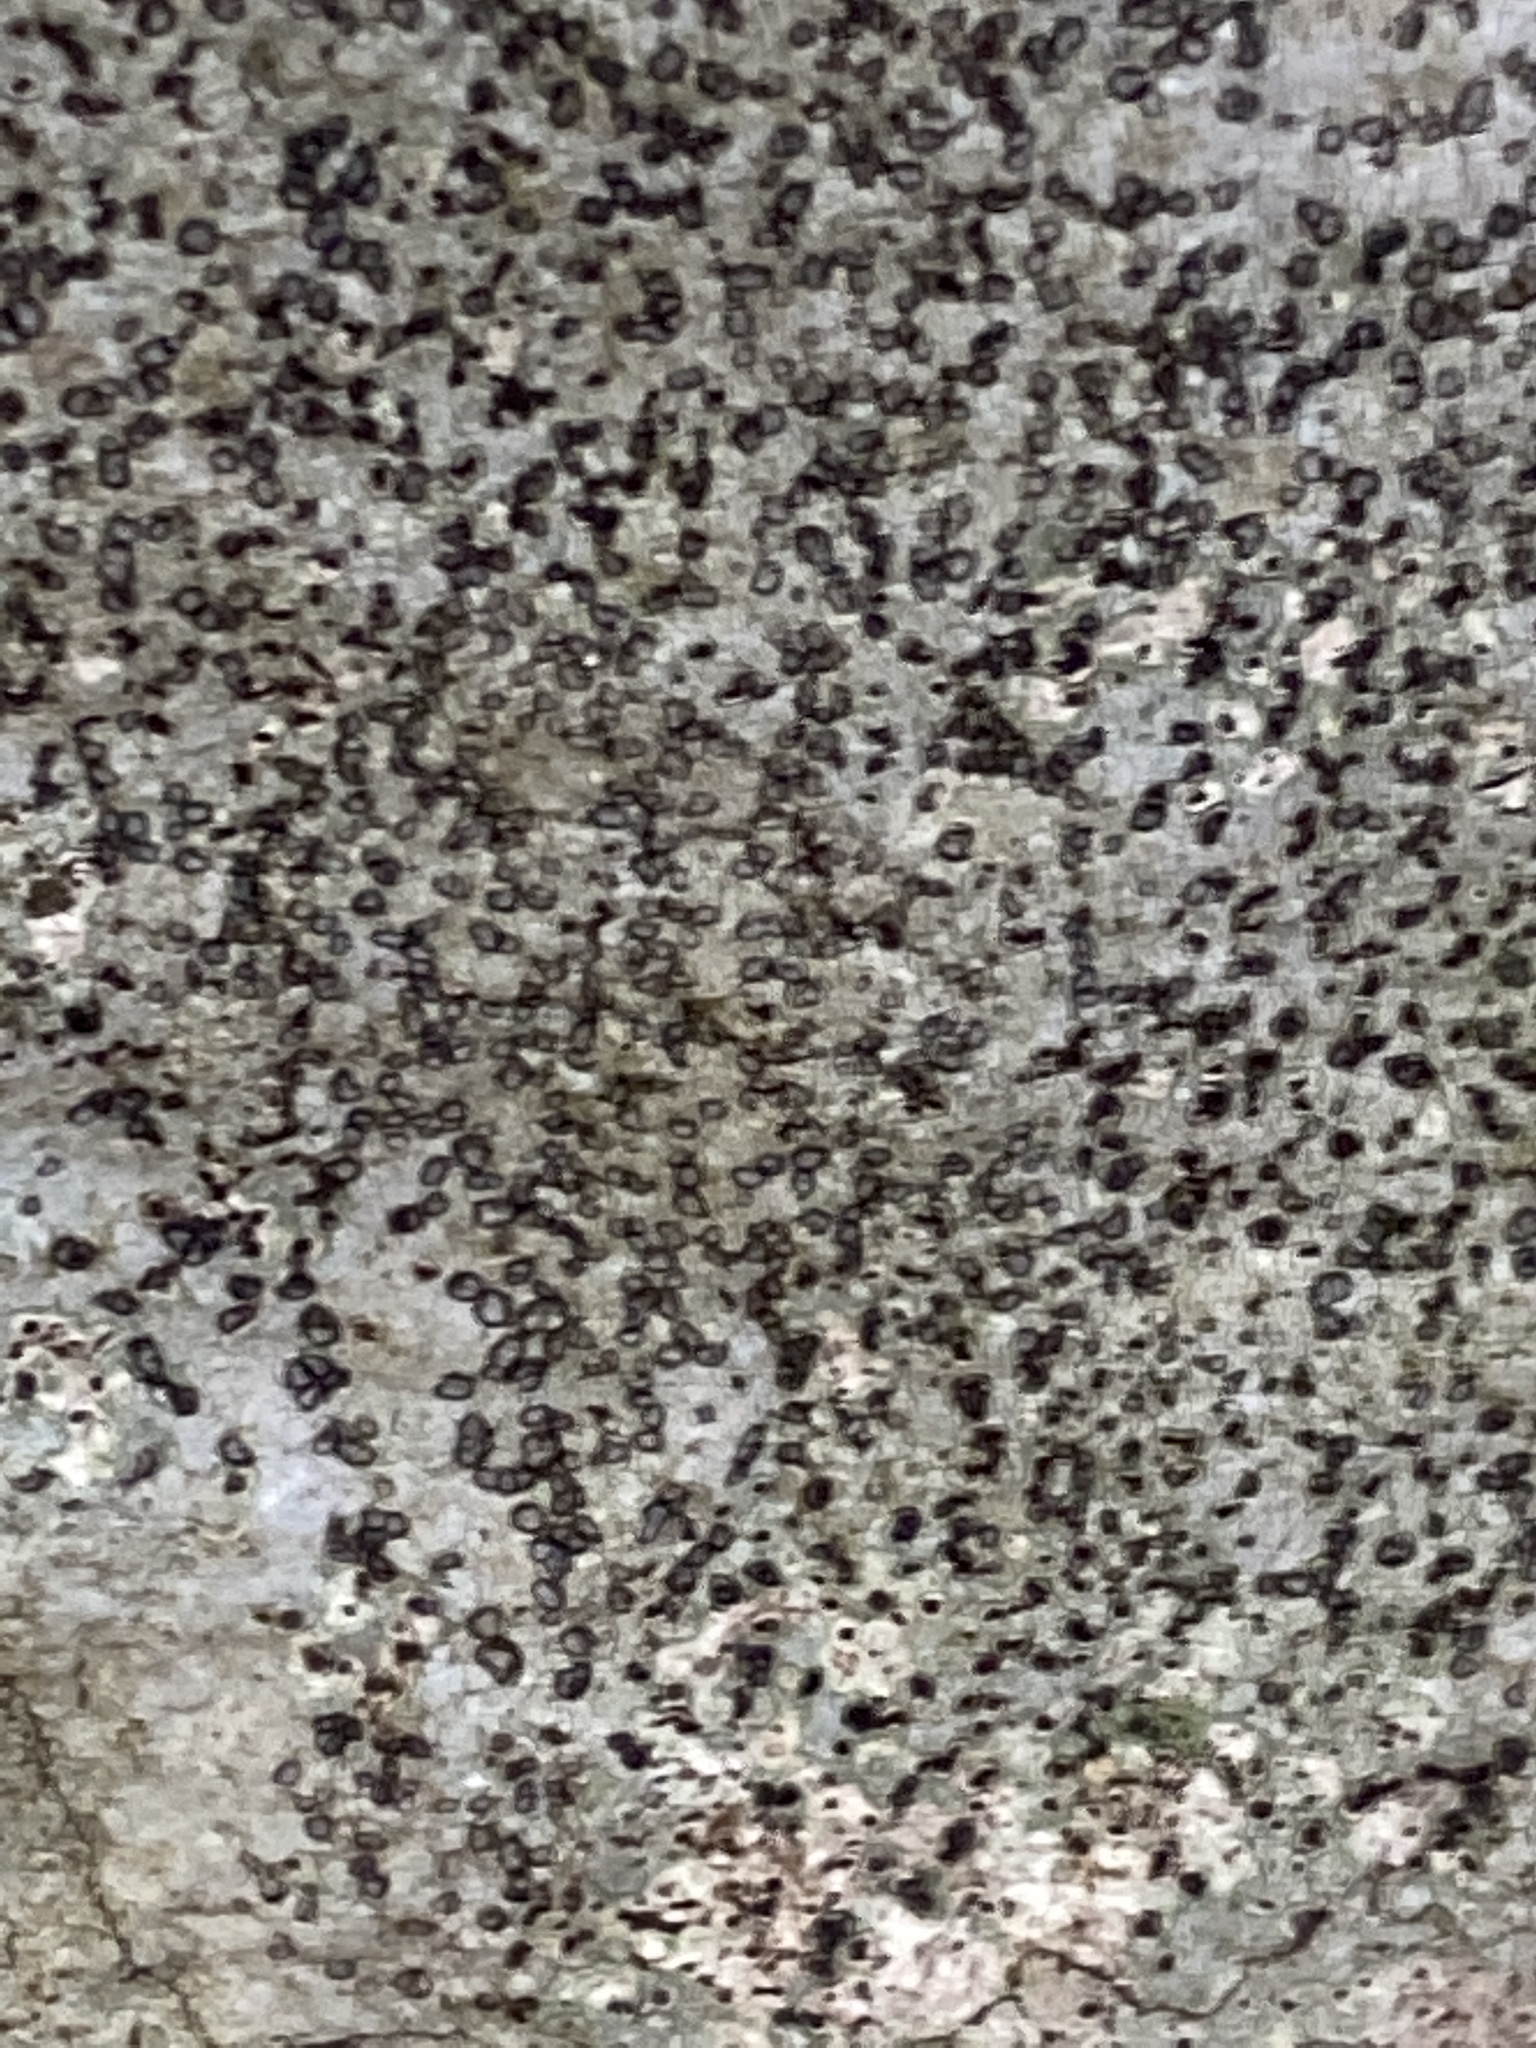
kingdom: Fungi
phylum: Ascomycota
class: Lecanoromycetes
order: Lecideales
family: Lecideaceae
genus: Porpidia
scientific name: Porpidia albocaerulescens
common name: Smokey-eyed boulder lichen
